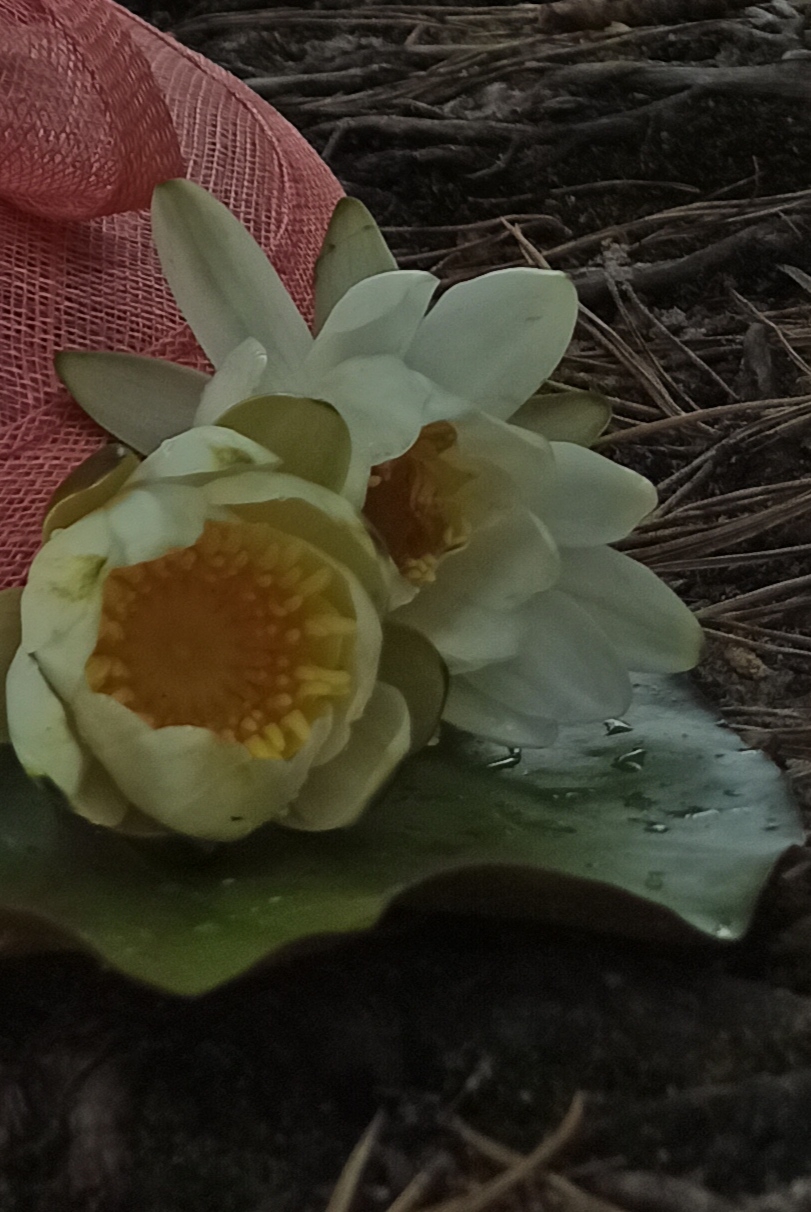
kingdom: Plantae
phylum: Tracheophyta
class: Magnoliopsida
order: Nymphaeales
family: Nymphaeaceae
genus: Nymphaea
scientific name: Nymphaea candida
